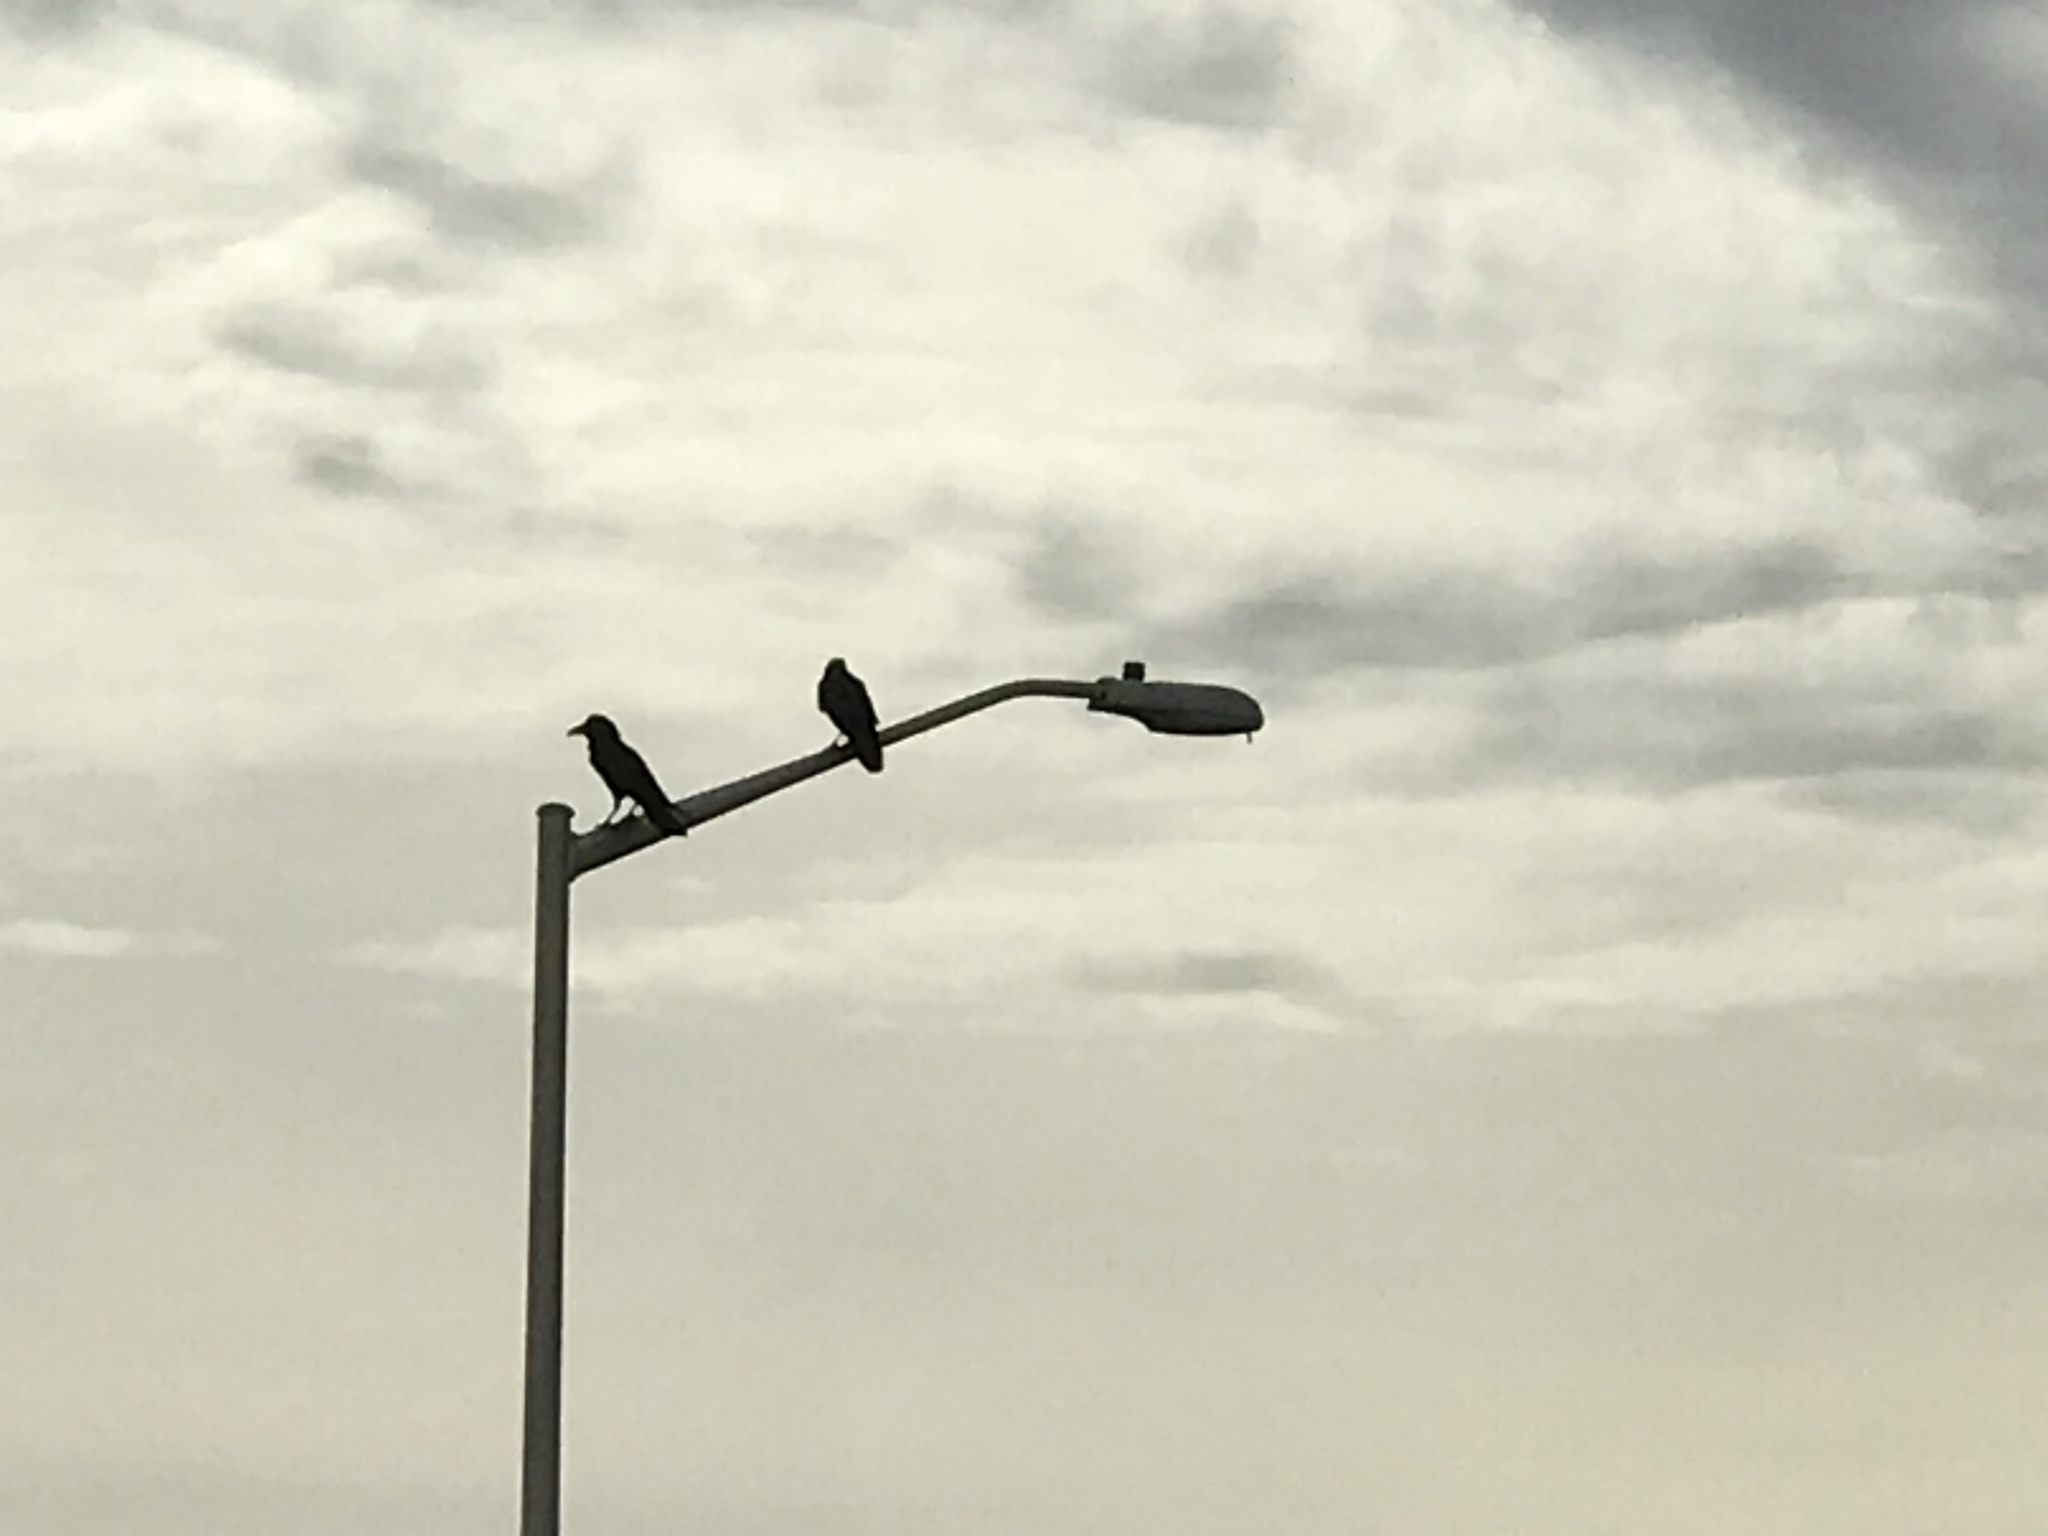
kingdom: Animalia
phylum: Chordata
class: Aves
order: Passeriformes
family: Corvidae
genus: Corvus
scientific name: Corvus corax
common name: Common raven
